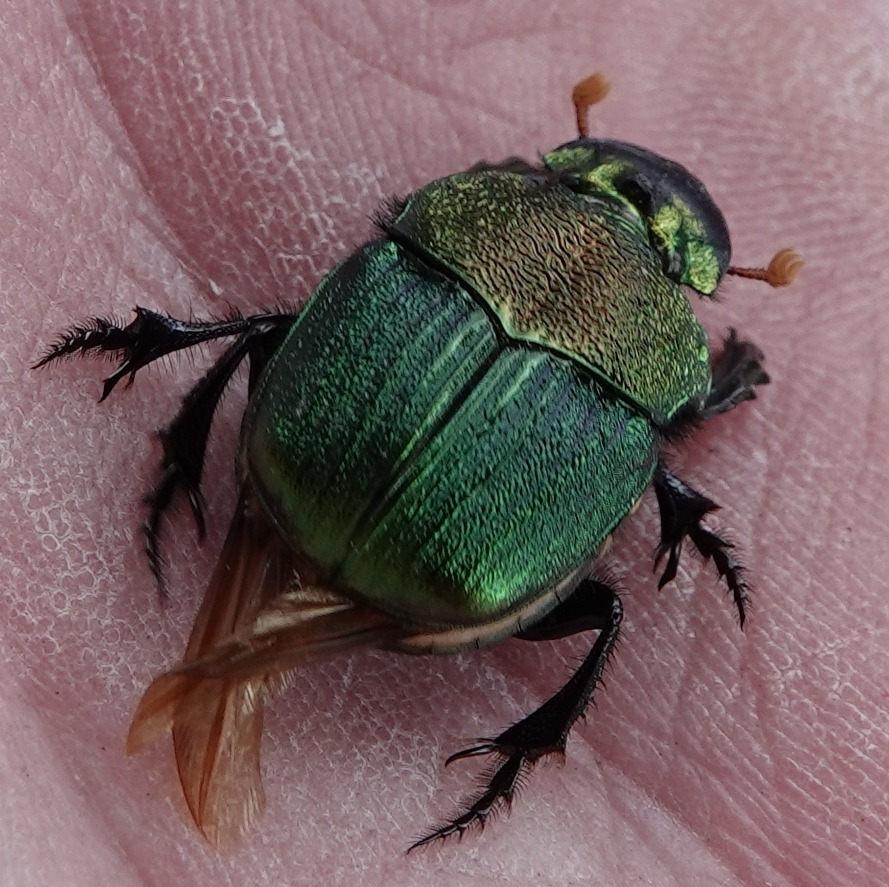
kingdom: Animalia
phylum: Arthropoda
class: Insecta
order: Coleoptera
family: Scarabaeidae
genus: Phanaeus
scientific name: Phanaeus vindex
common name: Rainbow scarab
